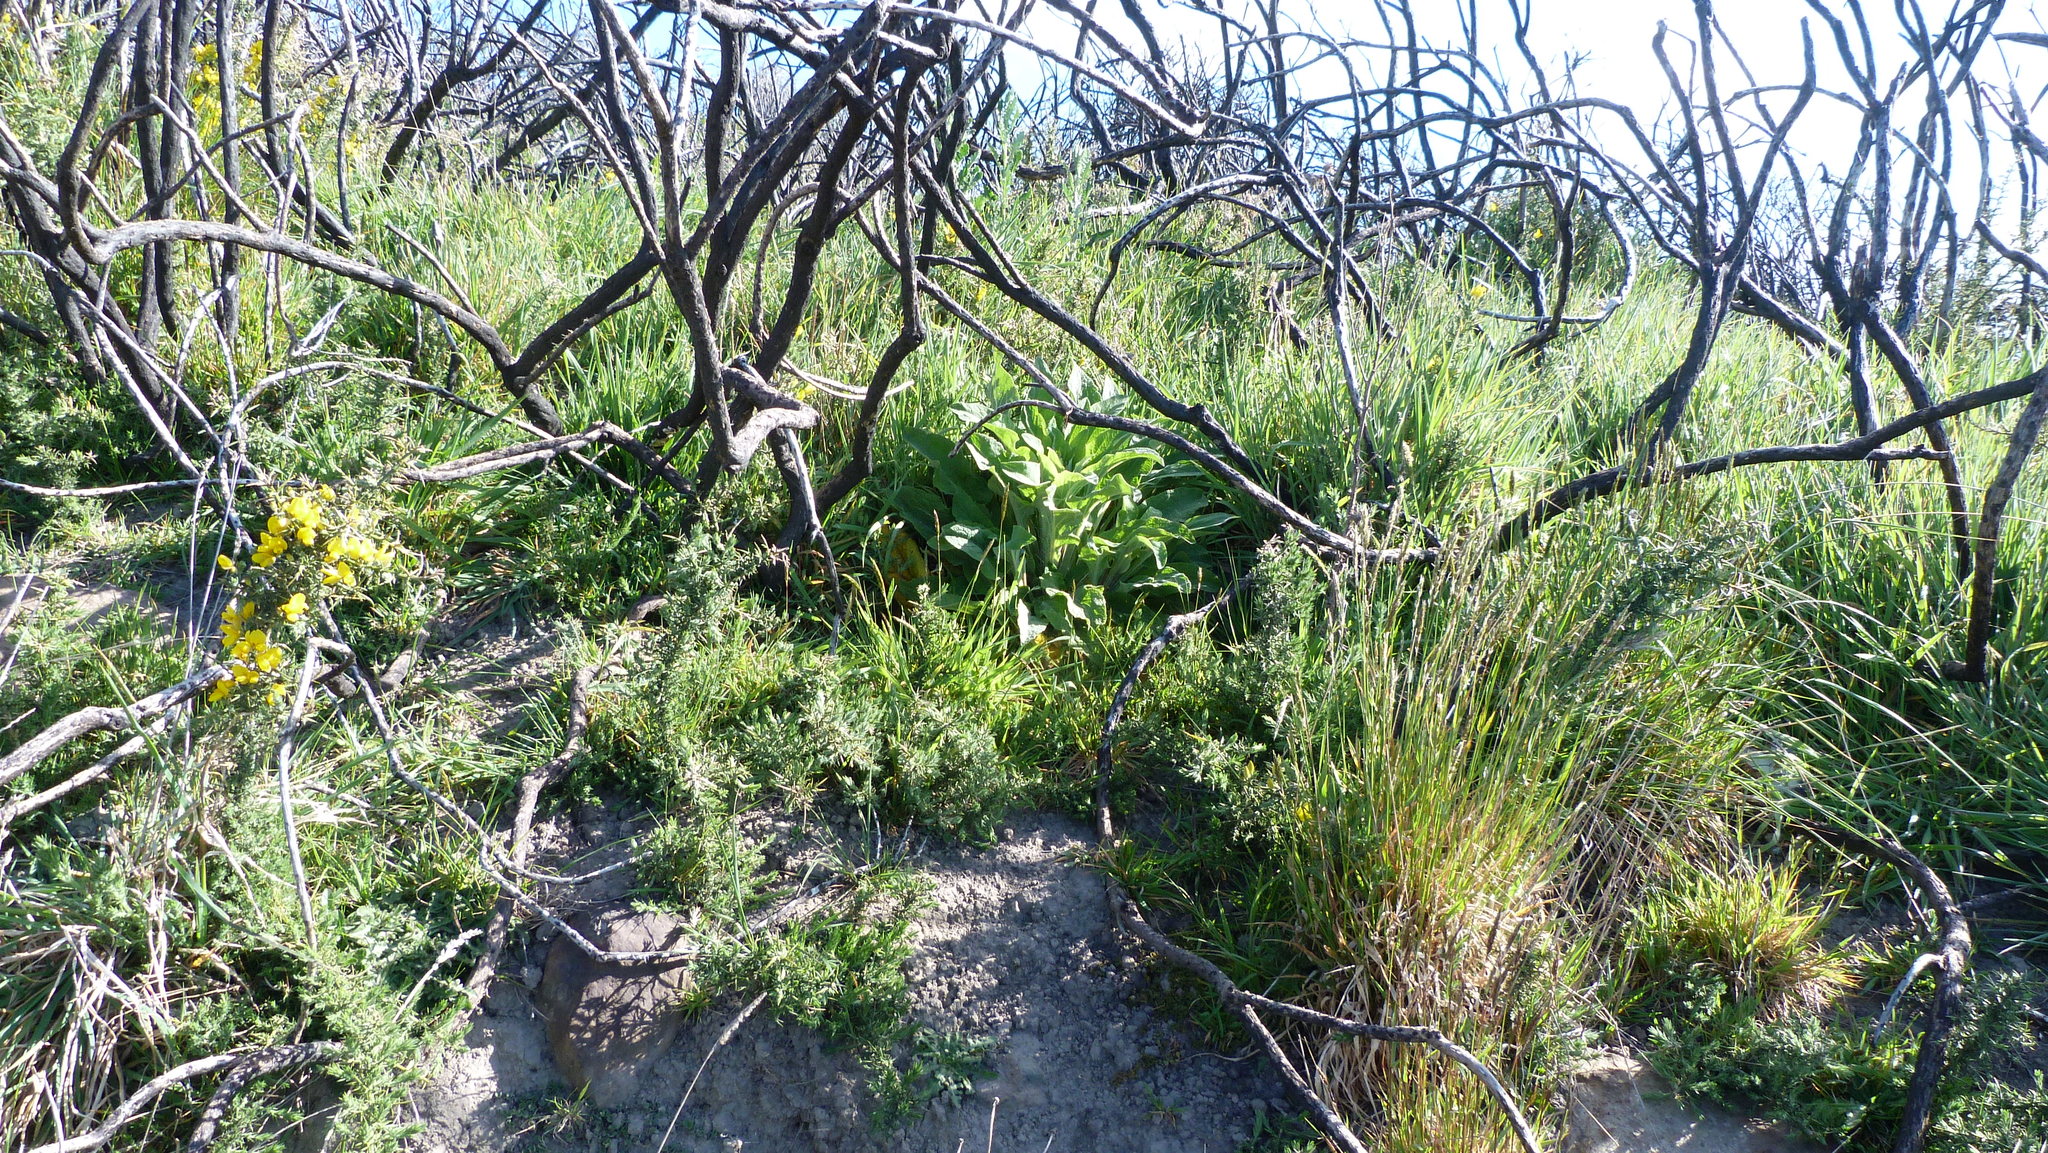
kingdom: Plantae
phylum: Tracheophyta
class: Magnoliopsida
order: Lamiales
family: Plantaginaceae
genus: Digitalis
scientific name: Digitalis purpurea
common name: Foxglove
